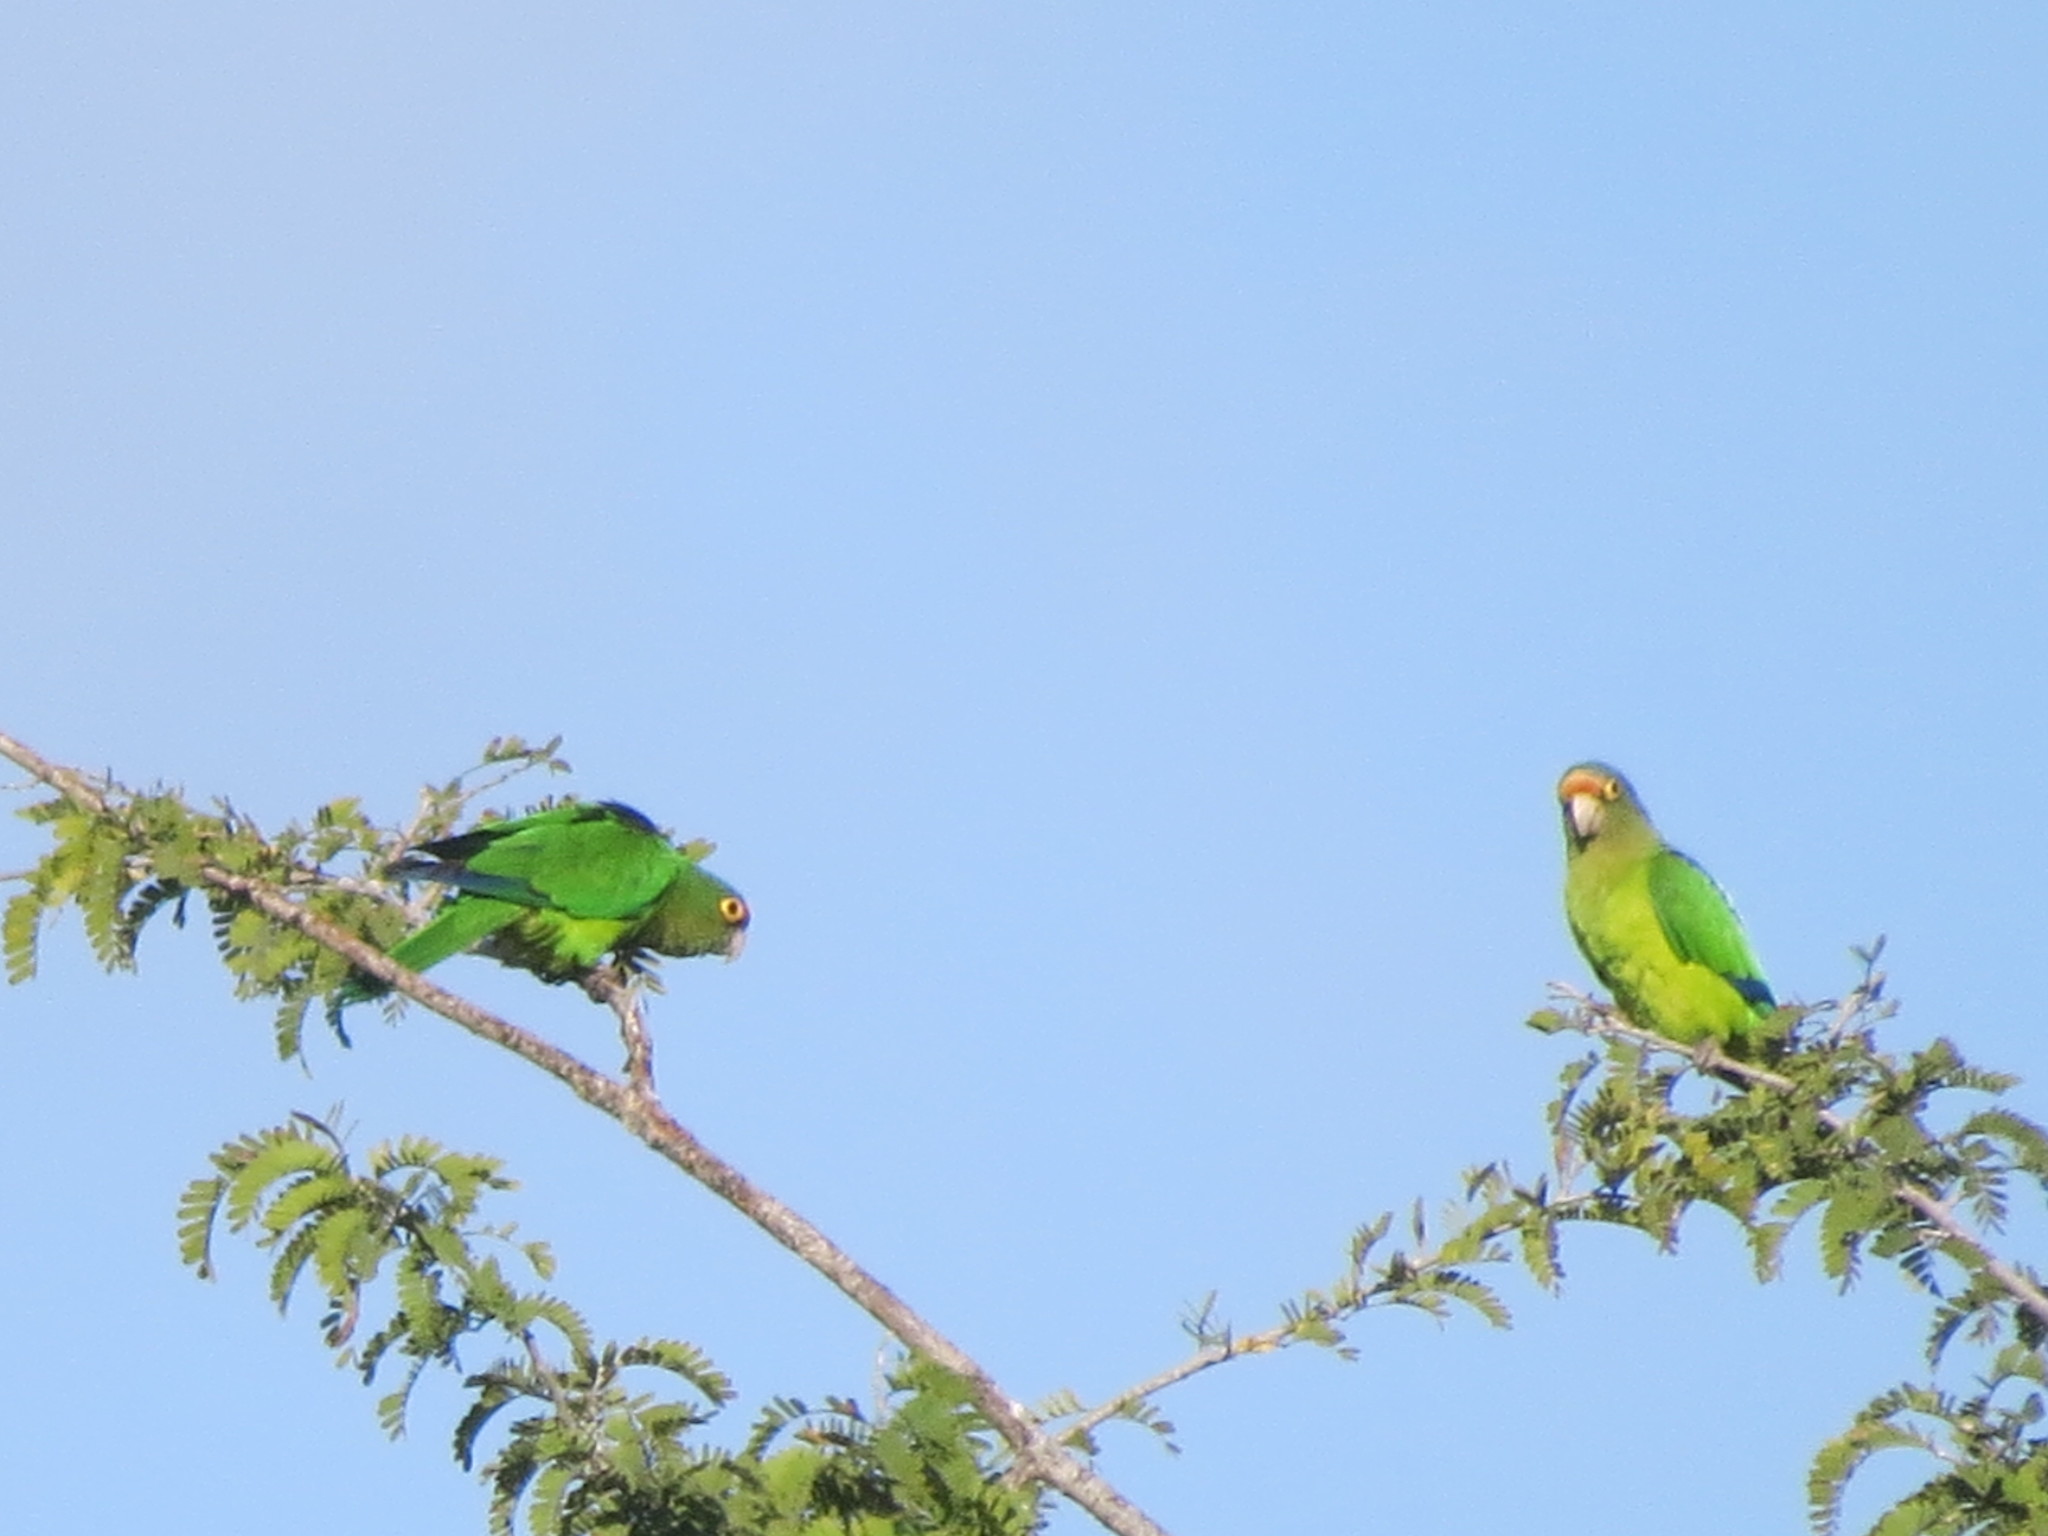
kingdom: Animalia
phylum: Chordata
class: Aves
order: Psittaciformes
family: Psittacidae
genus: Aratinga
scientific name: Aratinga canicularis
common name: Orange-fronted parakeet
